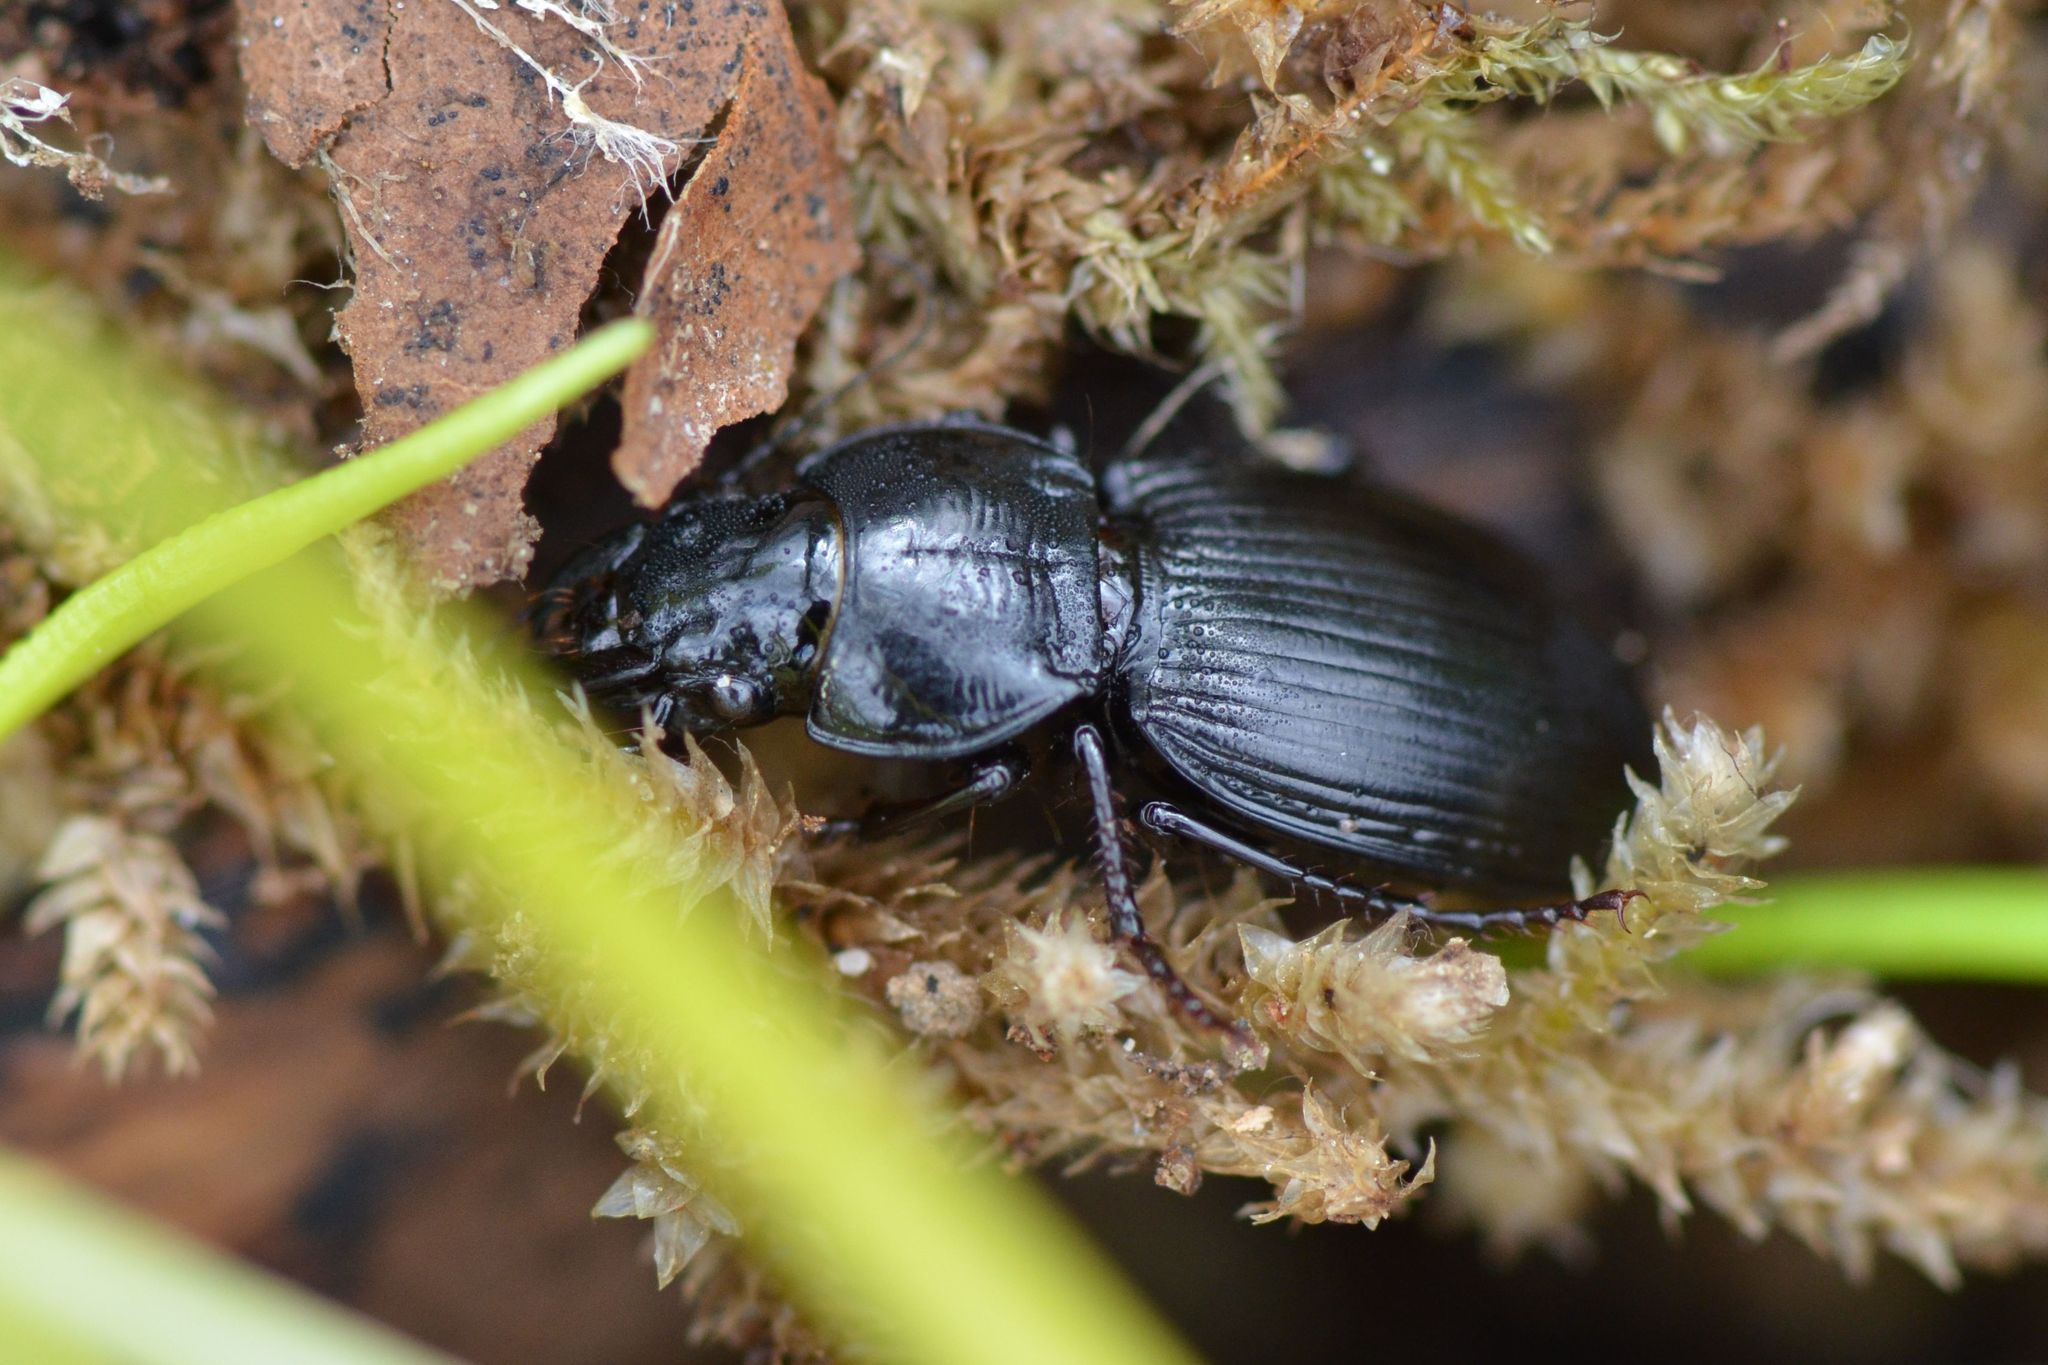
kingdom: Animalia
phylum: Arthropoda
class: Insecta
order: Coleoptera
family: Carabidae
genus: Molops
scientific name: Molops elatus
